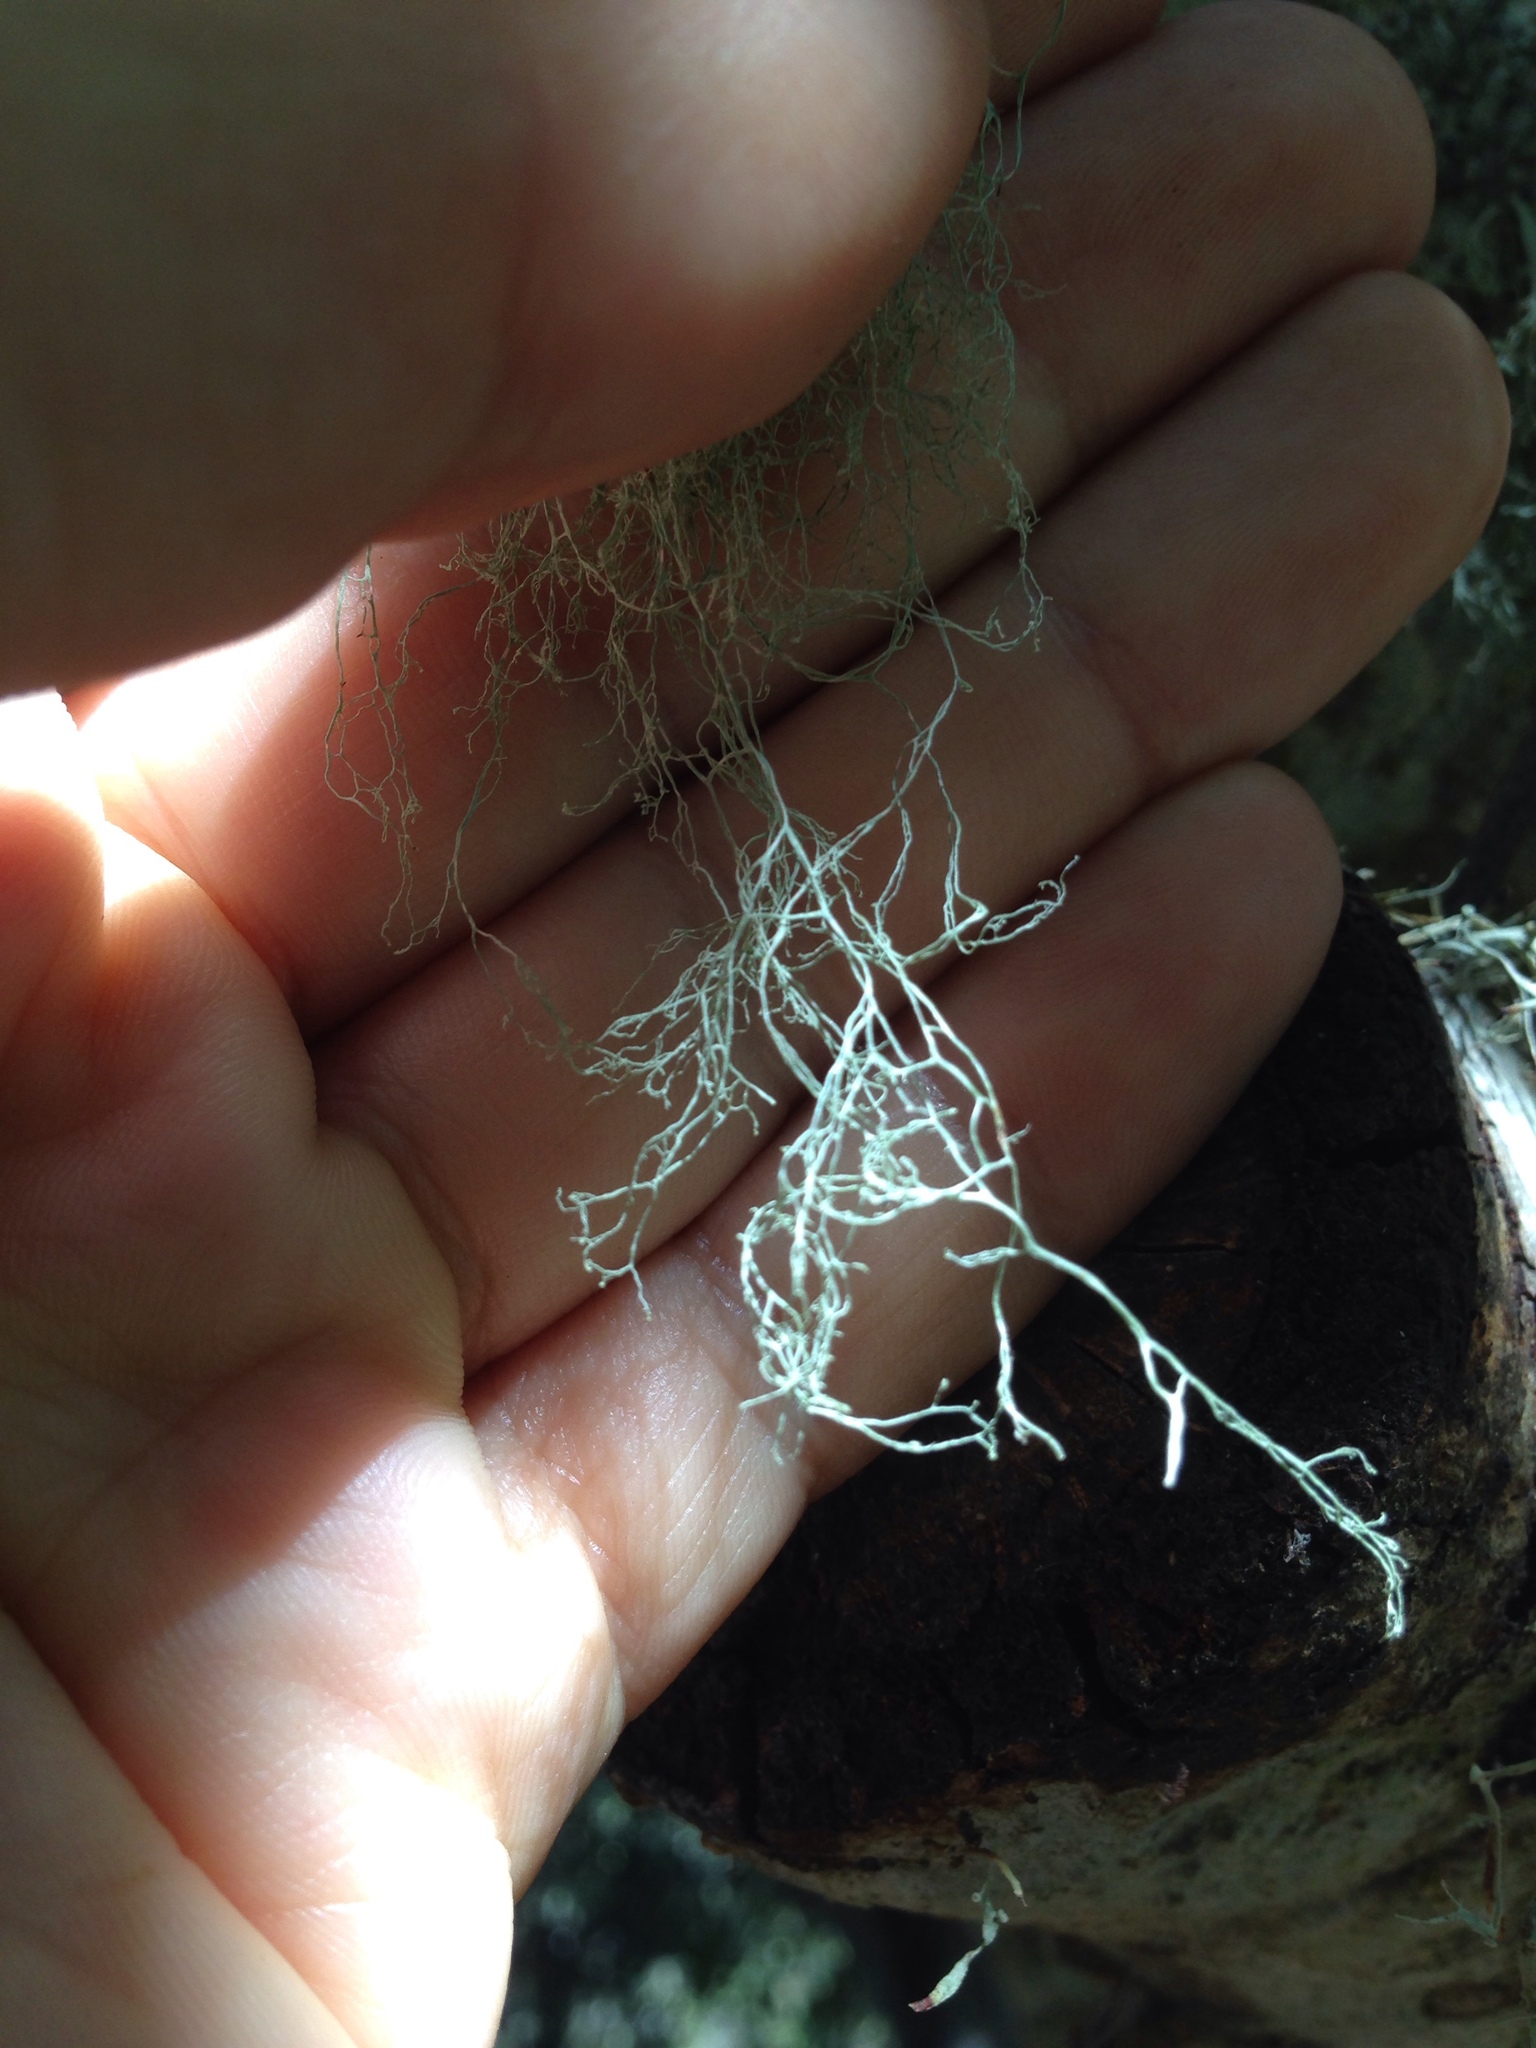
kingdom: Fungi
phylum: Ascomycota
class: Lecanoromycetes
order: Lecanorales
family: Ramalinaceae
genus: Ramalina
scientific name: Ramalina menziesii
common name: Lace lichen
